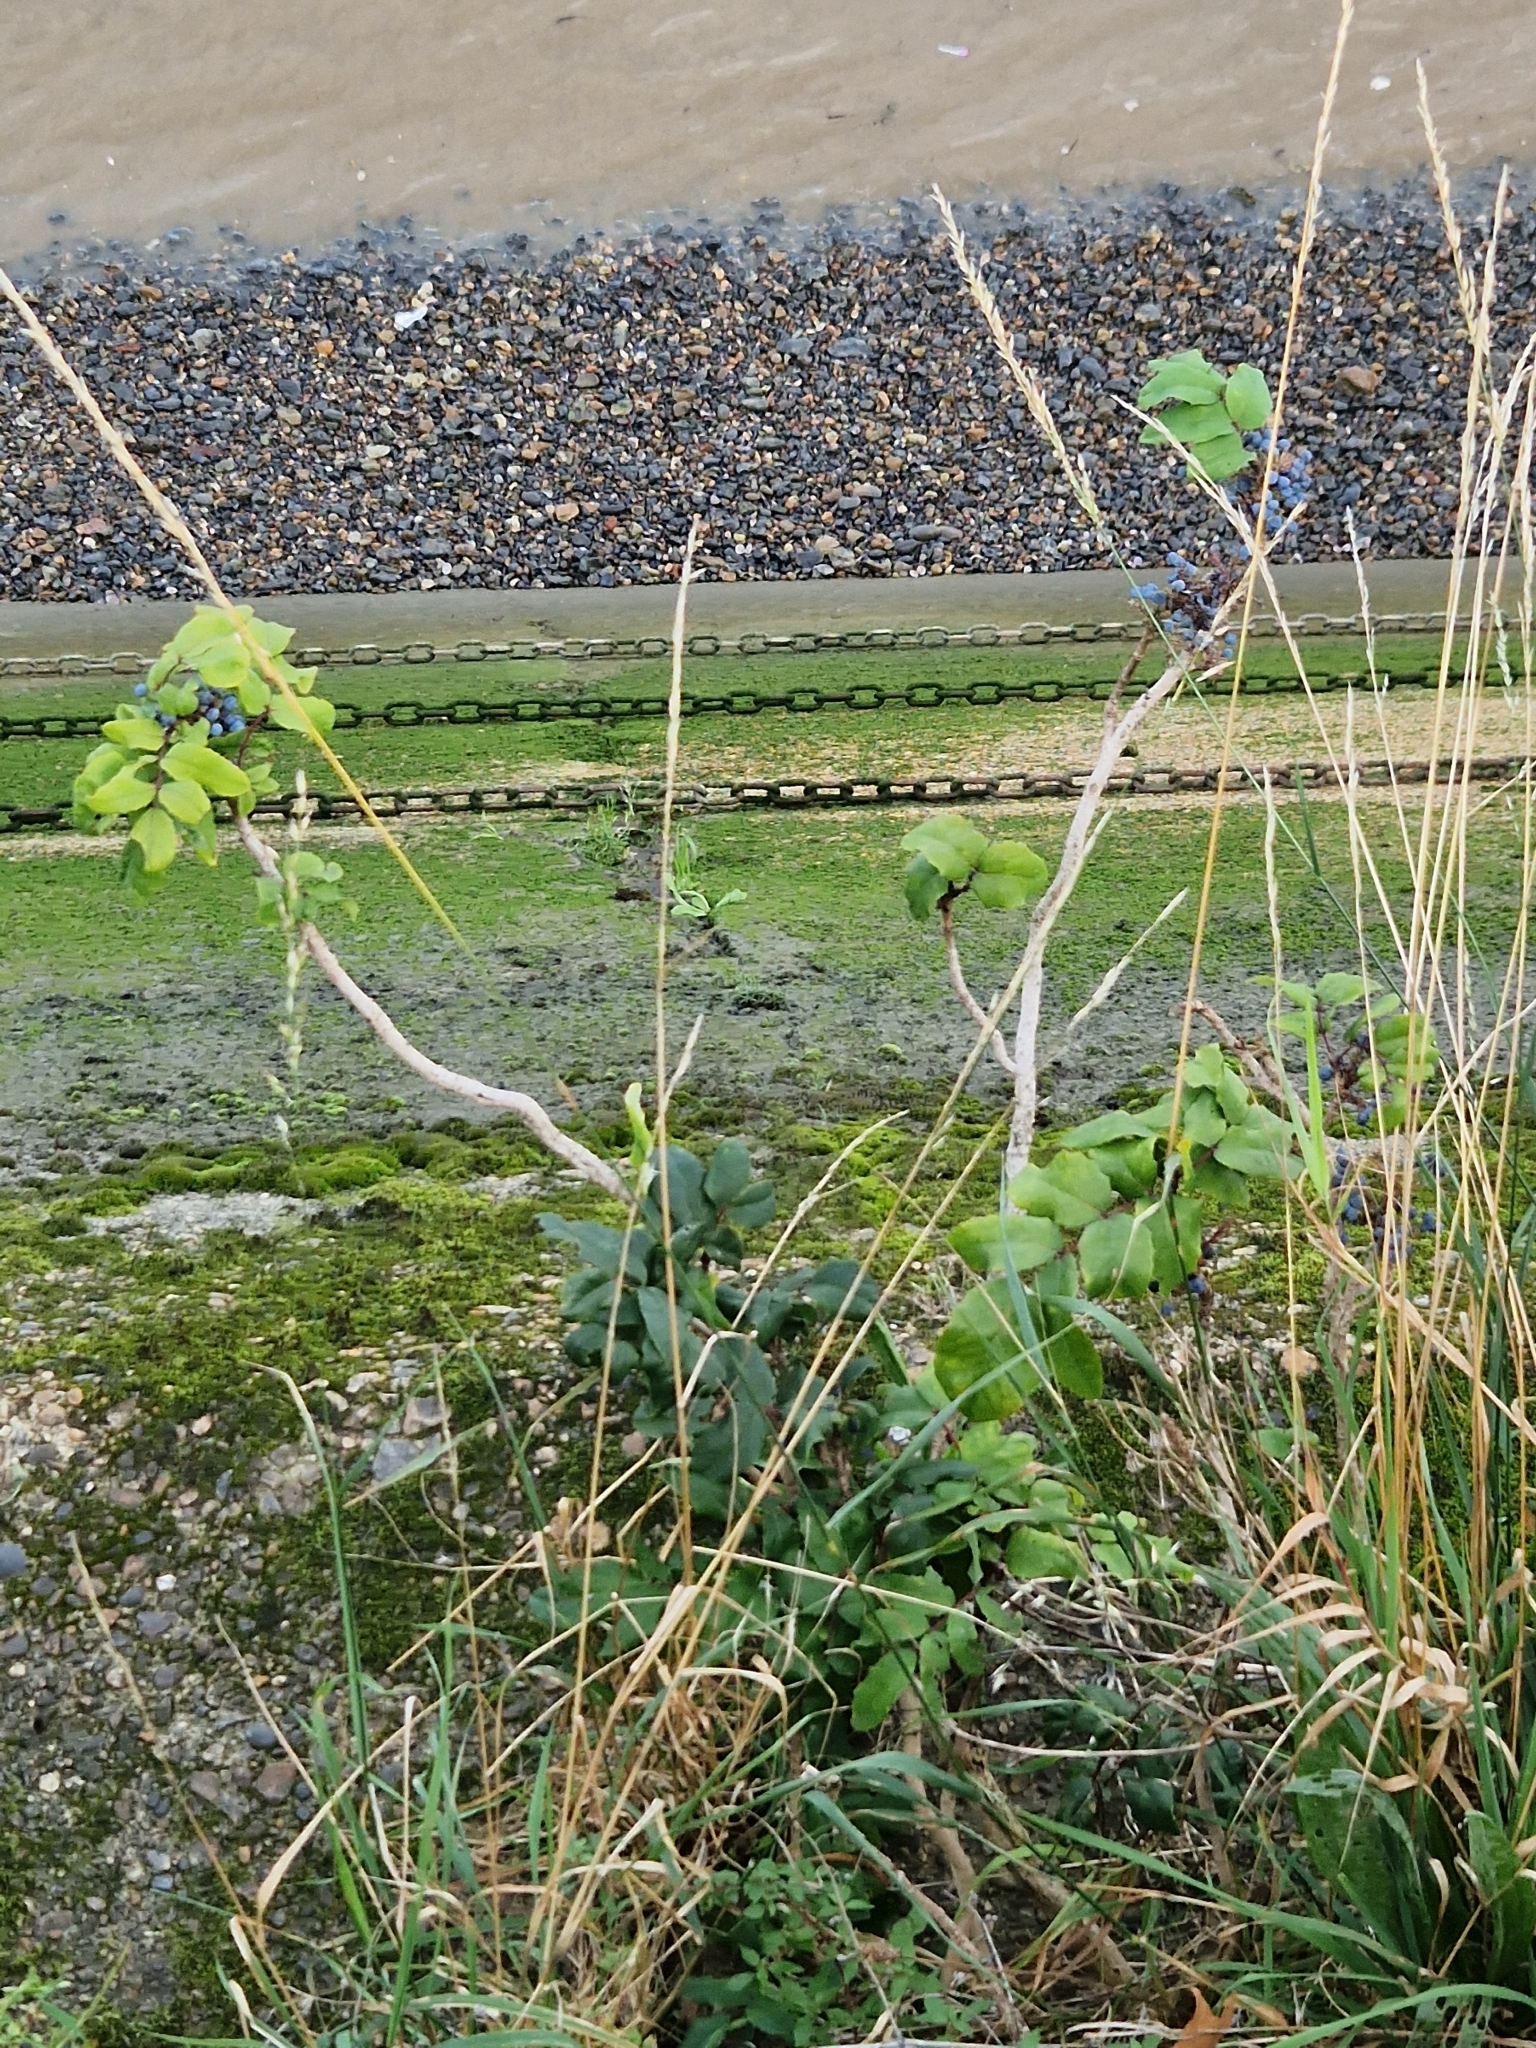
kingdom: Plantae
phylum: Tracheophyta
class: Magnoliopsida
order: Ranunculales
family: Berberidaceae
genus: Mahonia
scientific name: Mahonia aquifolium
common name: Oregon-grape
